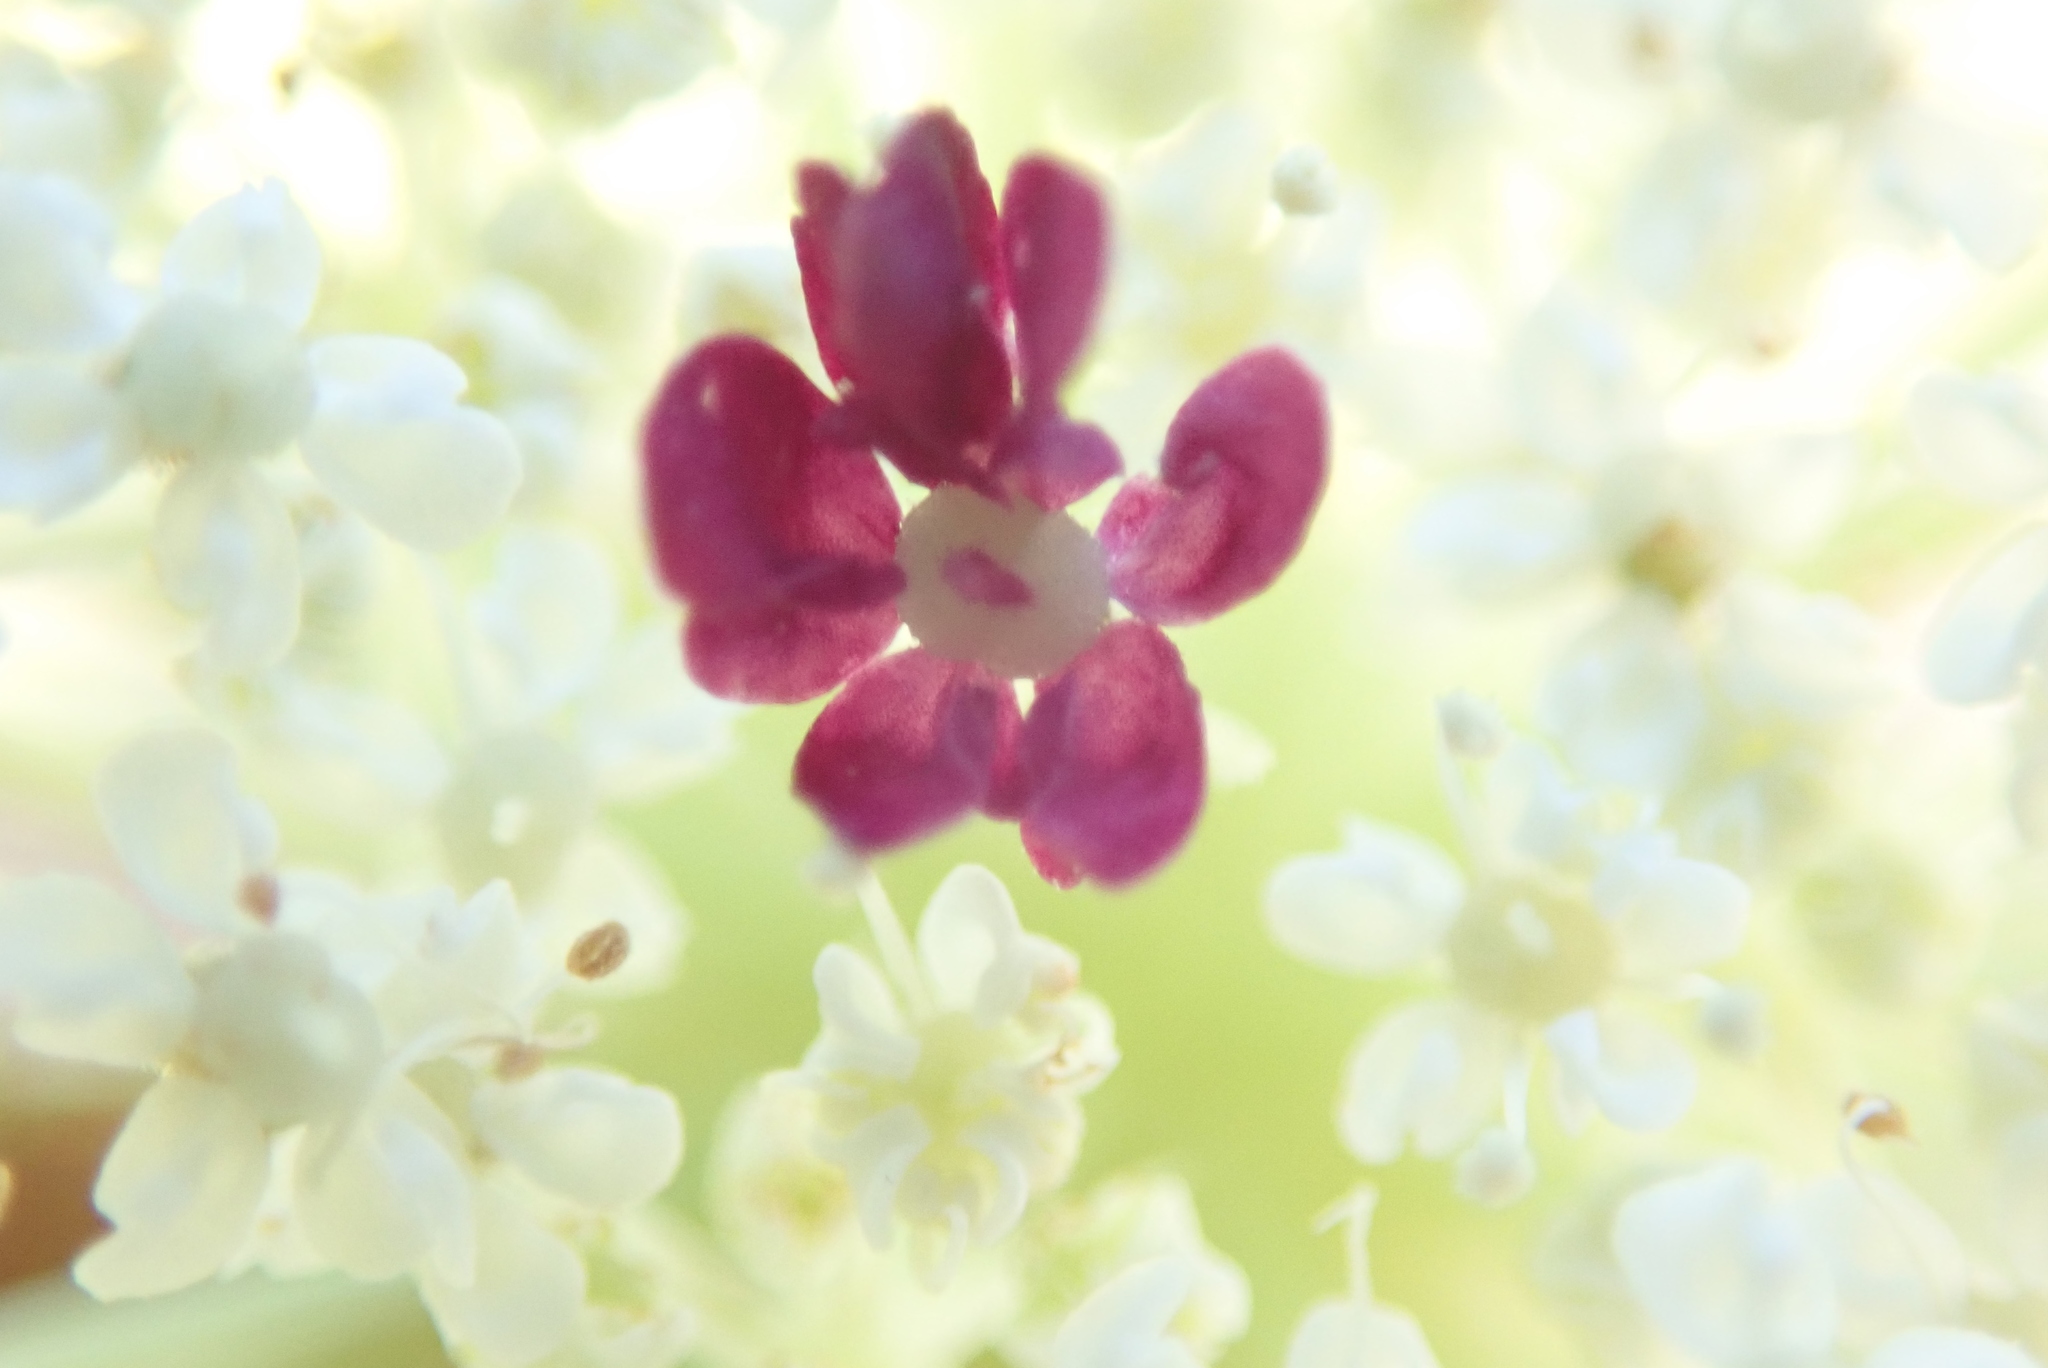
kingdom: Plantae
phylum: Tracheophyta
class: Magnoliopsida
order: Apiales
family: Apiaceae
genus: Daucus
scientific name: Daucus carota
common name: Wild carrot
